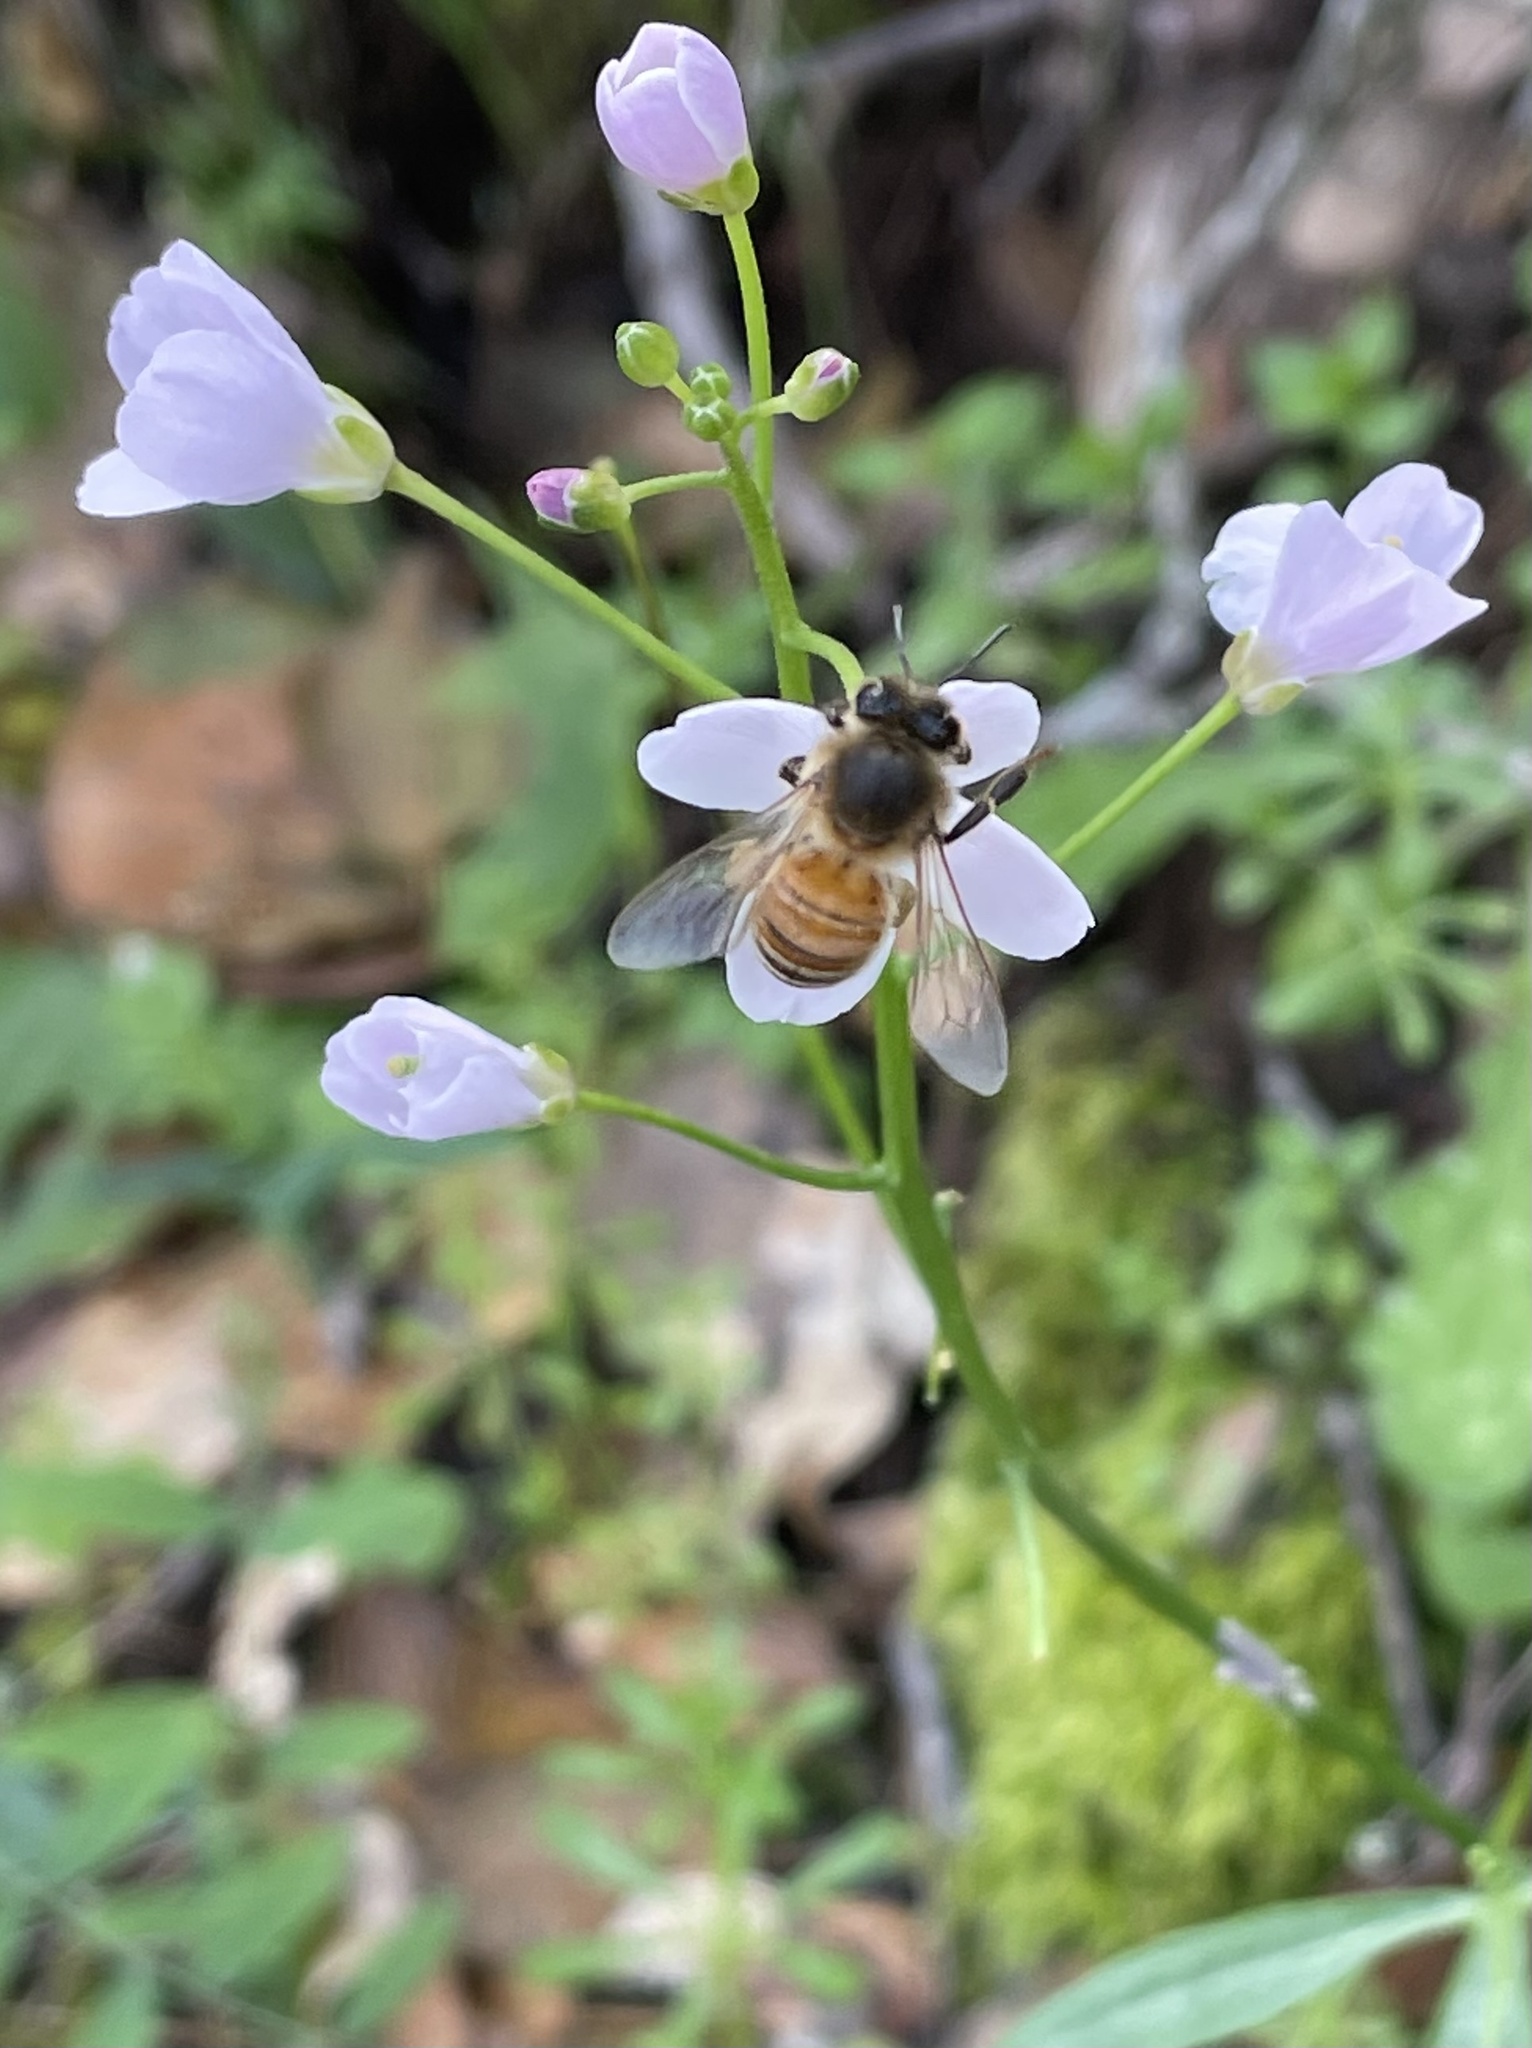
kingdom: Plantae
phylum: Tracheophyta
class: Magnoliopsida
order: Brassicales
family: Brassicaceae
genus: Cardamine
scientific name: Cardamine californica
